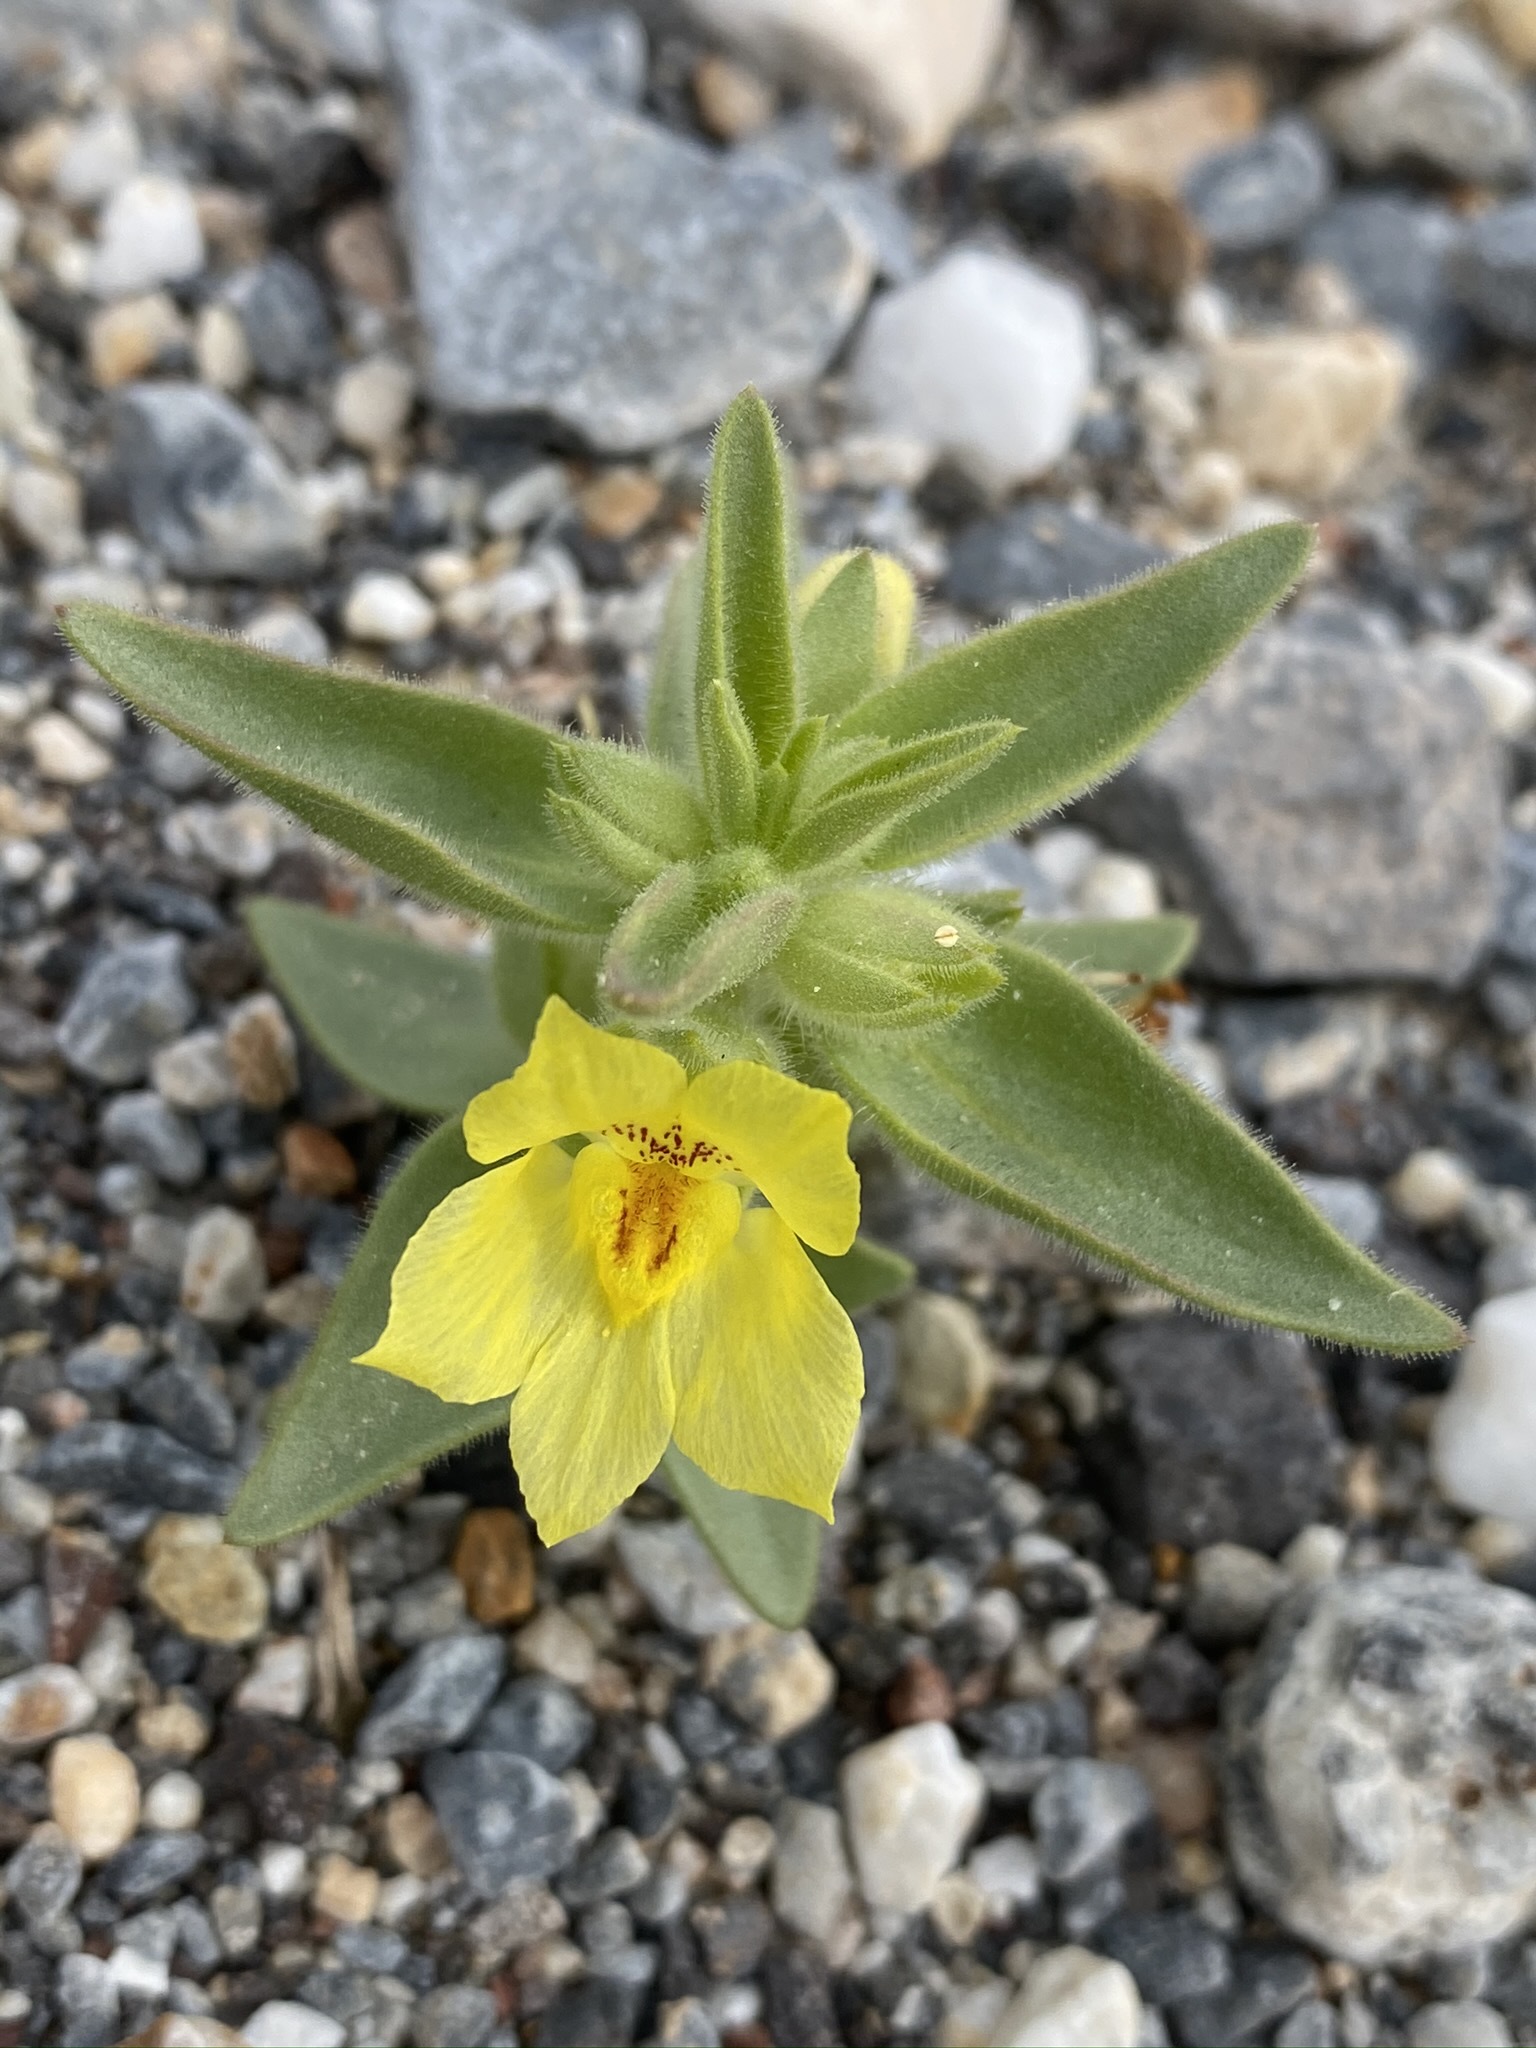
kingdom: Plantae
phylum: Tracheophyta
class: Magnoliopsida
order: Lamiales
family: Plantaginaceae
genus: Mohavea
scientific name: Mohavea breviflora
